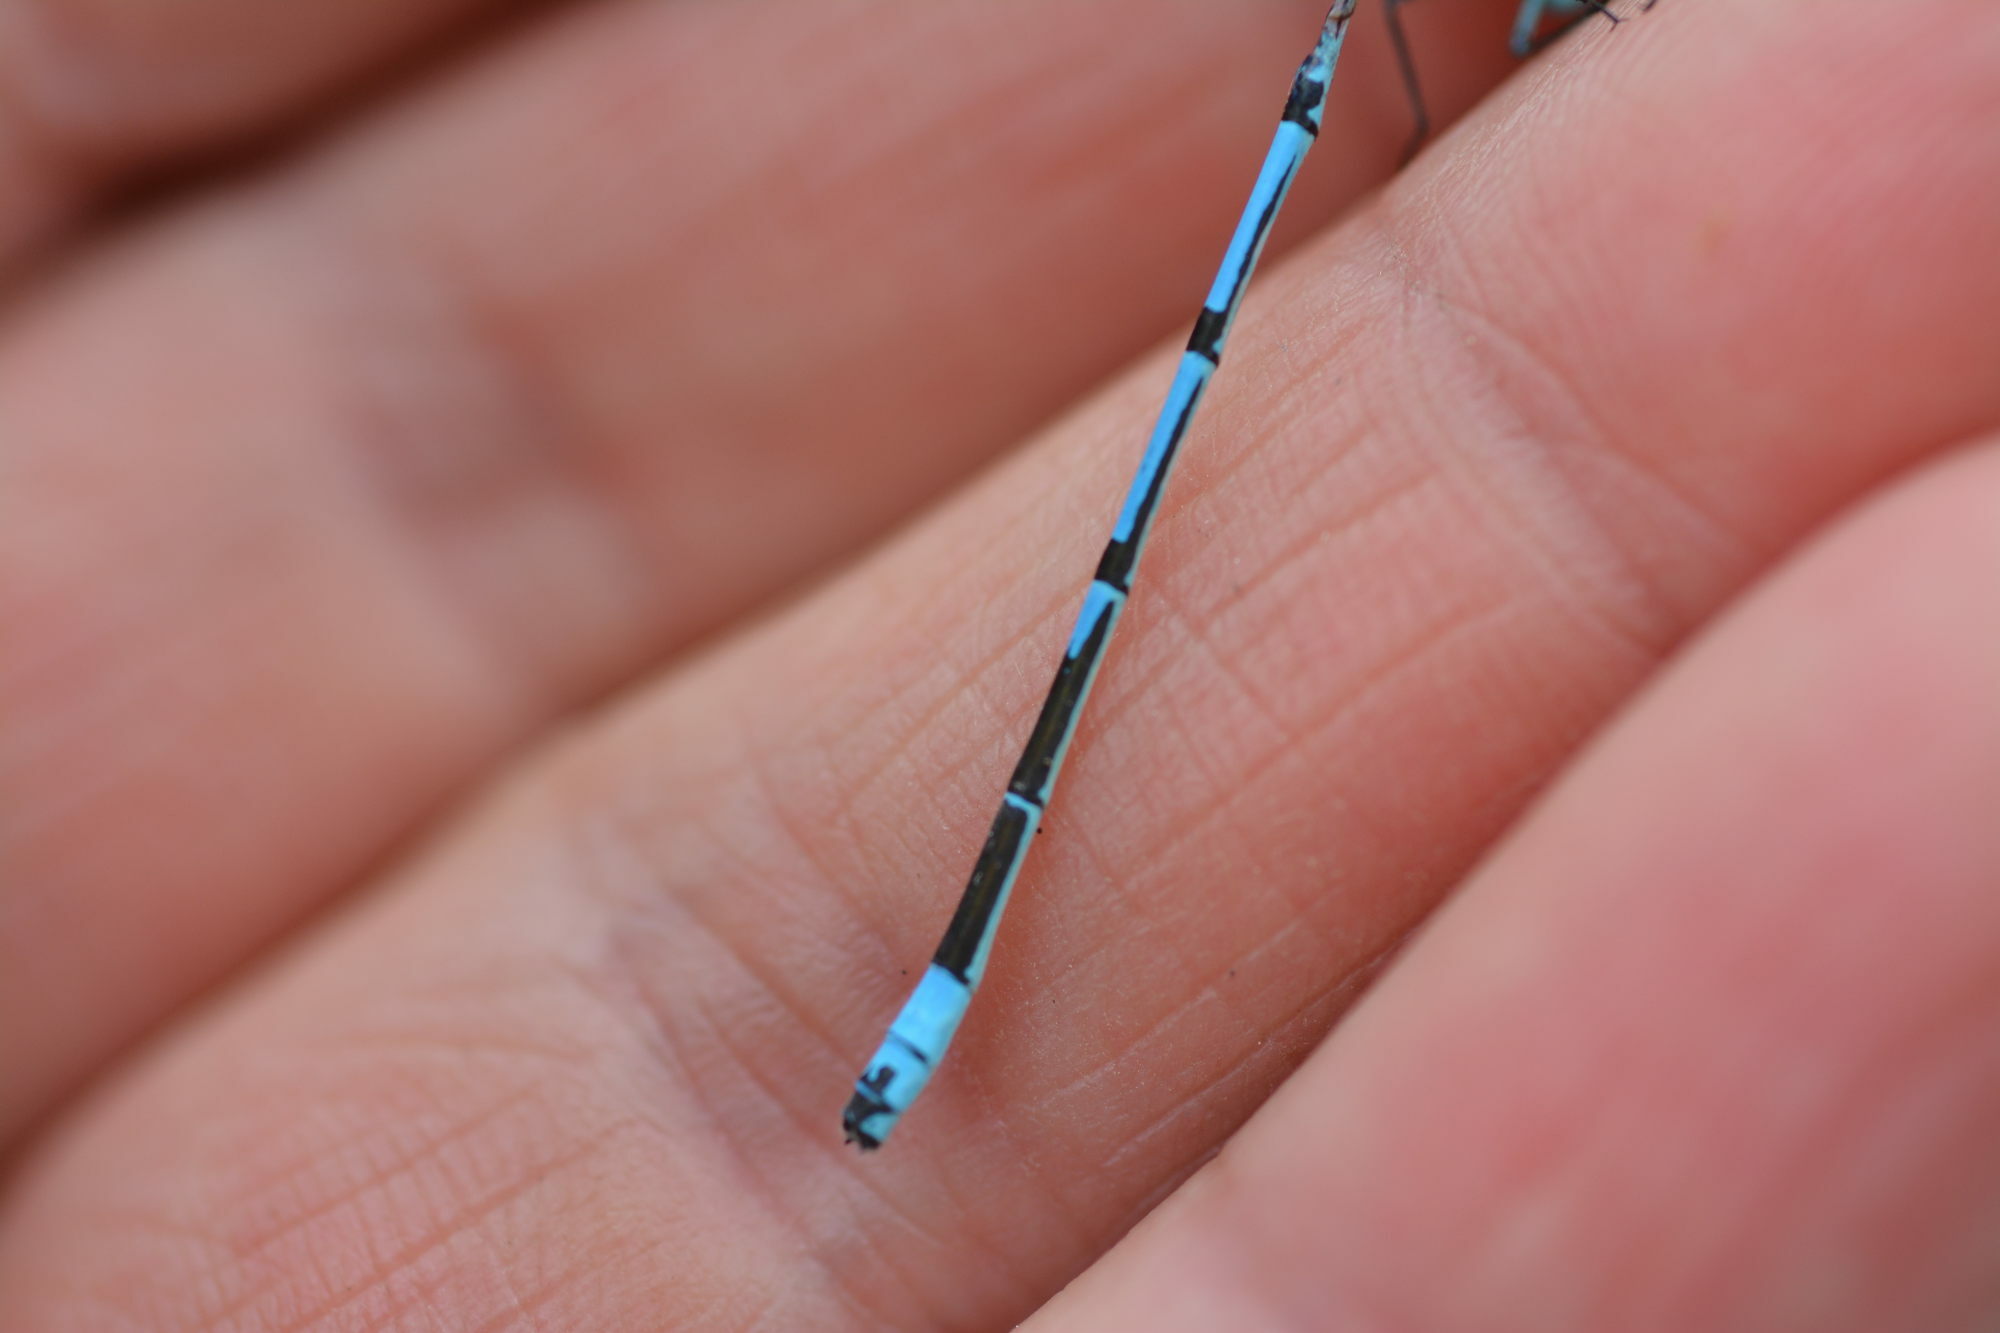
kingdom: Animalia
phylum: Arthropoda
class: Insecta
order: Odonata
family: Coenagrionidae
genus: Coenagrion
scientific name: Coenagrion puella
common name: Azure damselfly
